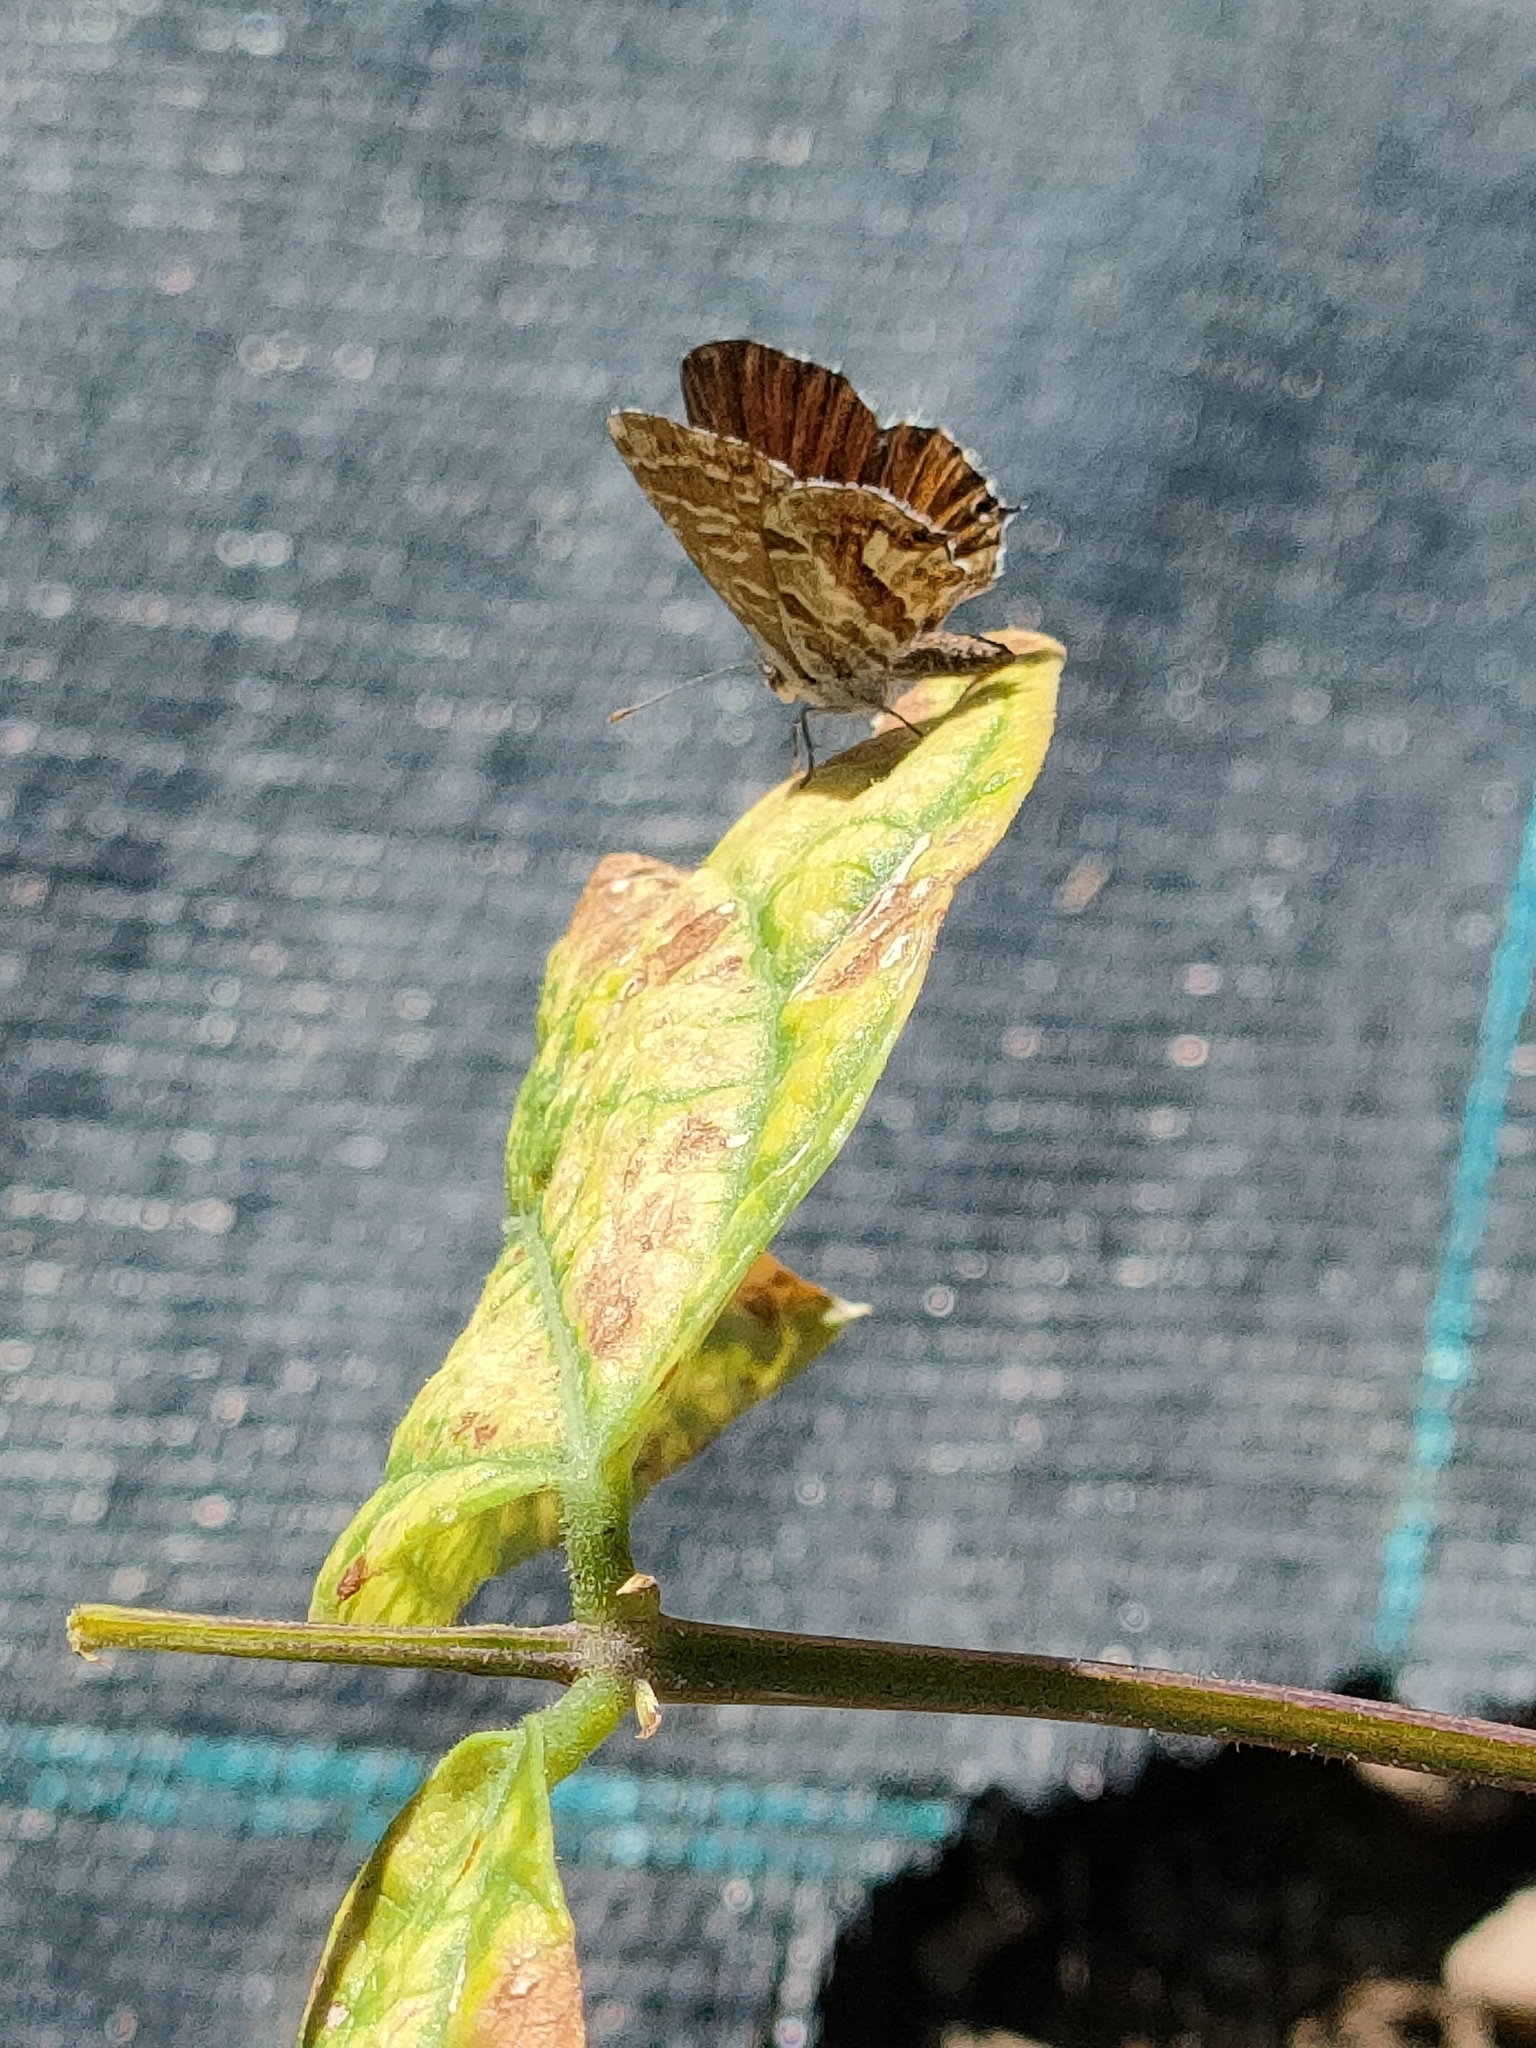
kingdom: Animalia
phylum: Arthropoda
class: Insecta
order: Lepidoptera
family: Lycaenidae
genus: Cacyreus
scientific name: Cacyreus marshalli
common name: Geranium bronze
